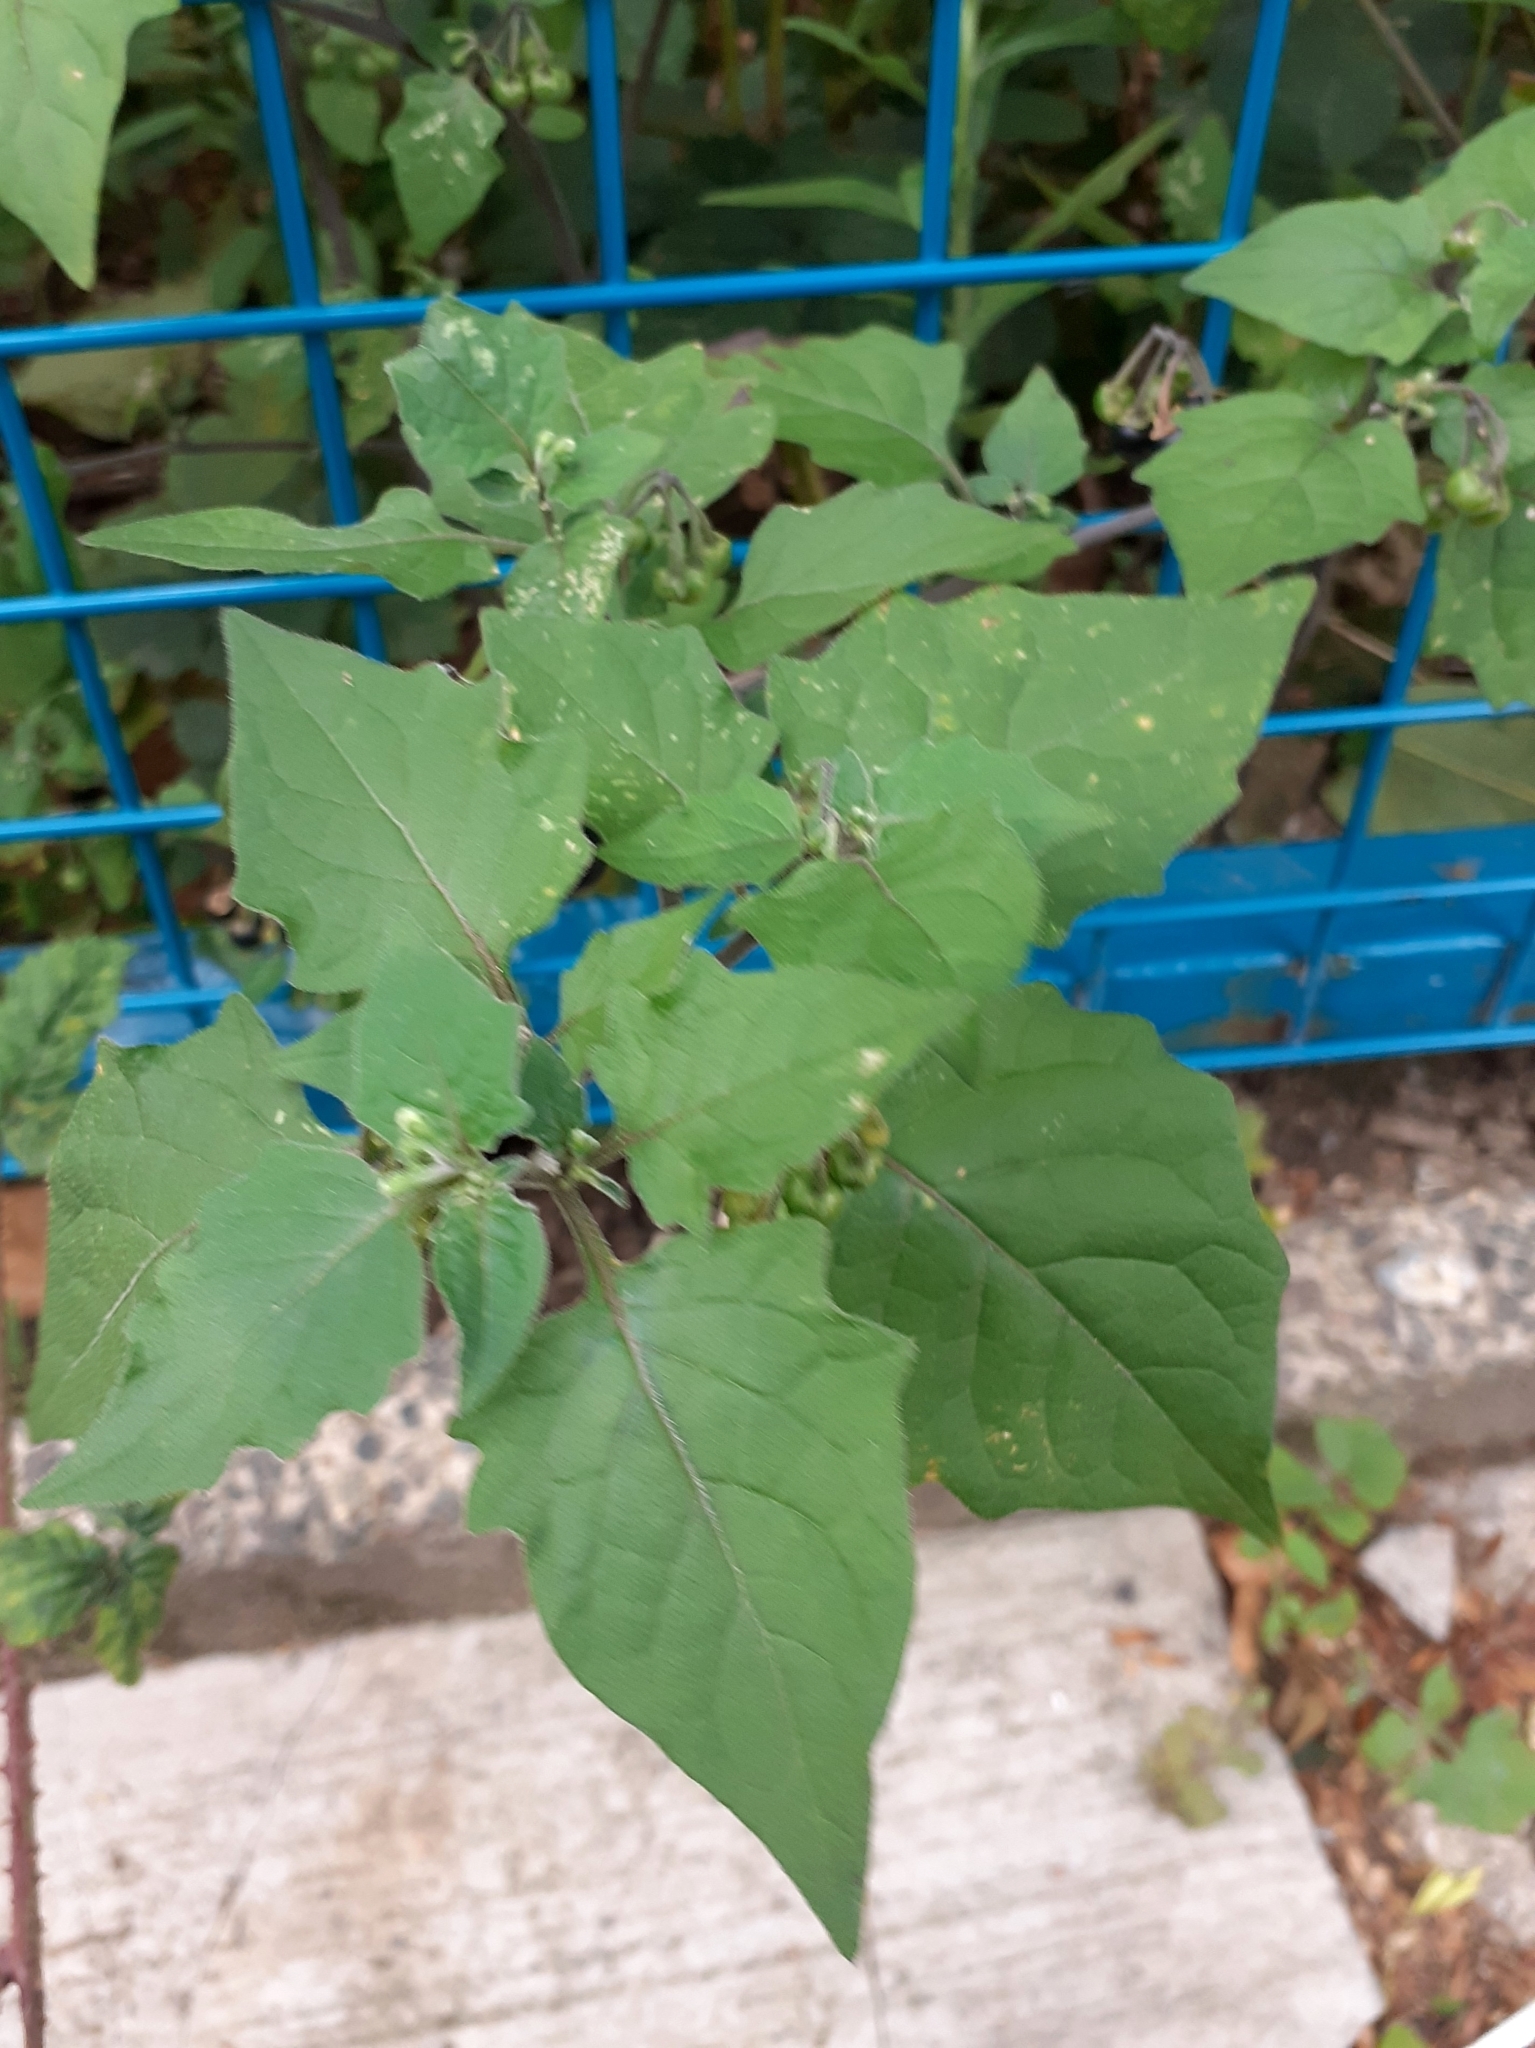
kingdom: Plantae
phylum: Tracheophyta
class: Magnoliopsida
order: Solanales
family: Solanaceae
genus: Solanum
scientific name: Solanum nigrum
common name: Black nightshade
